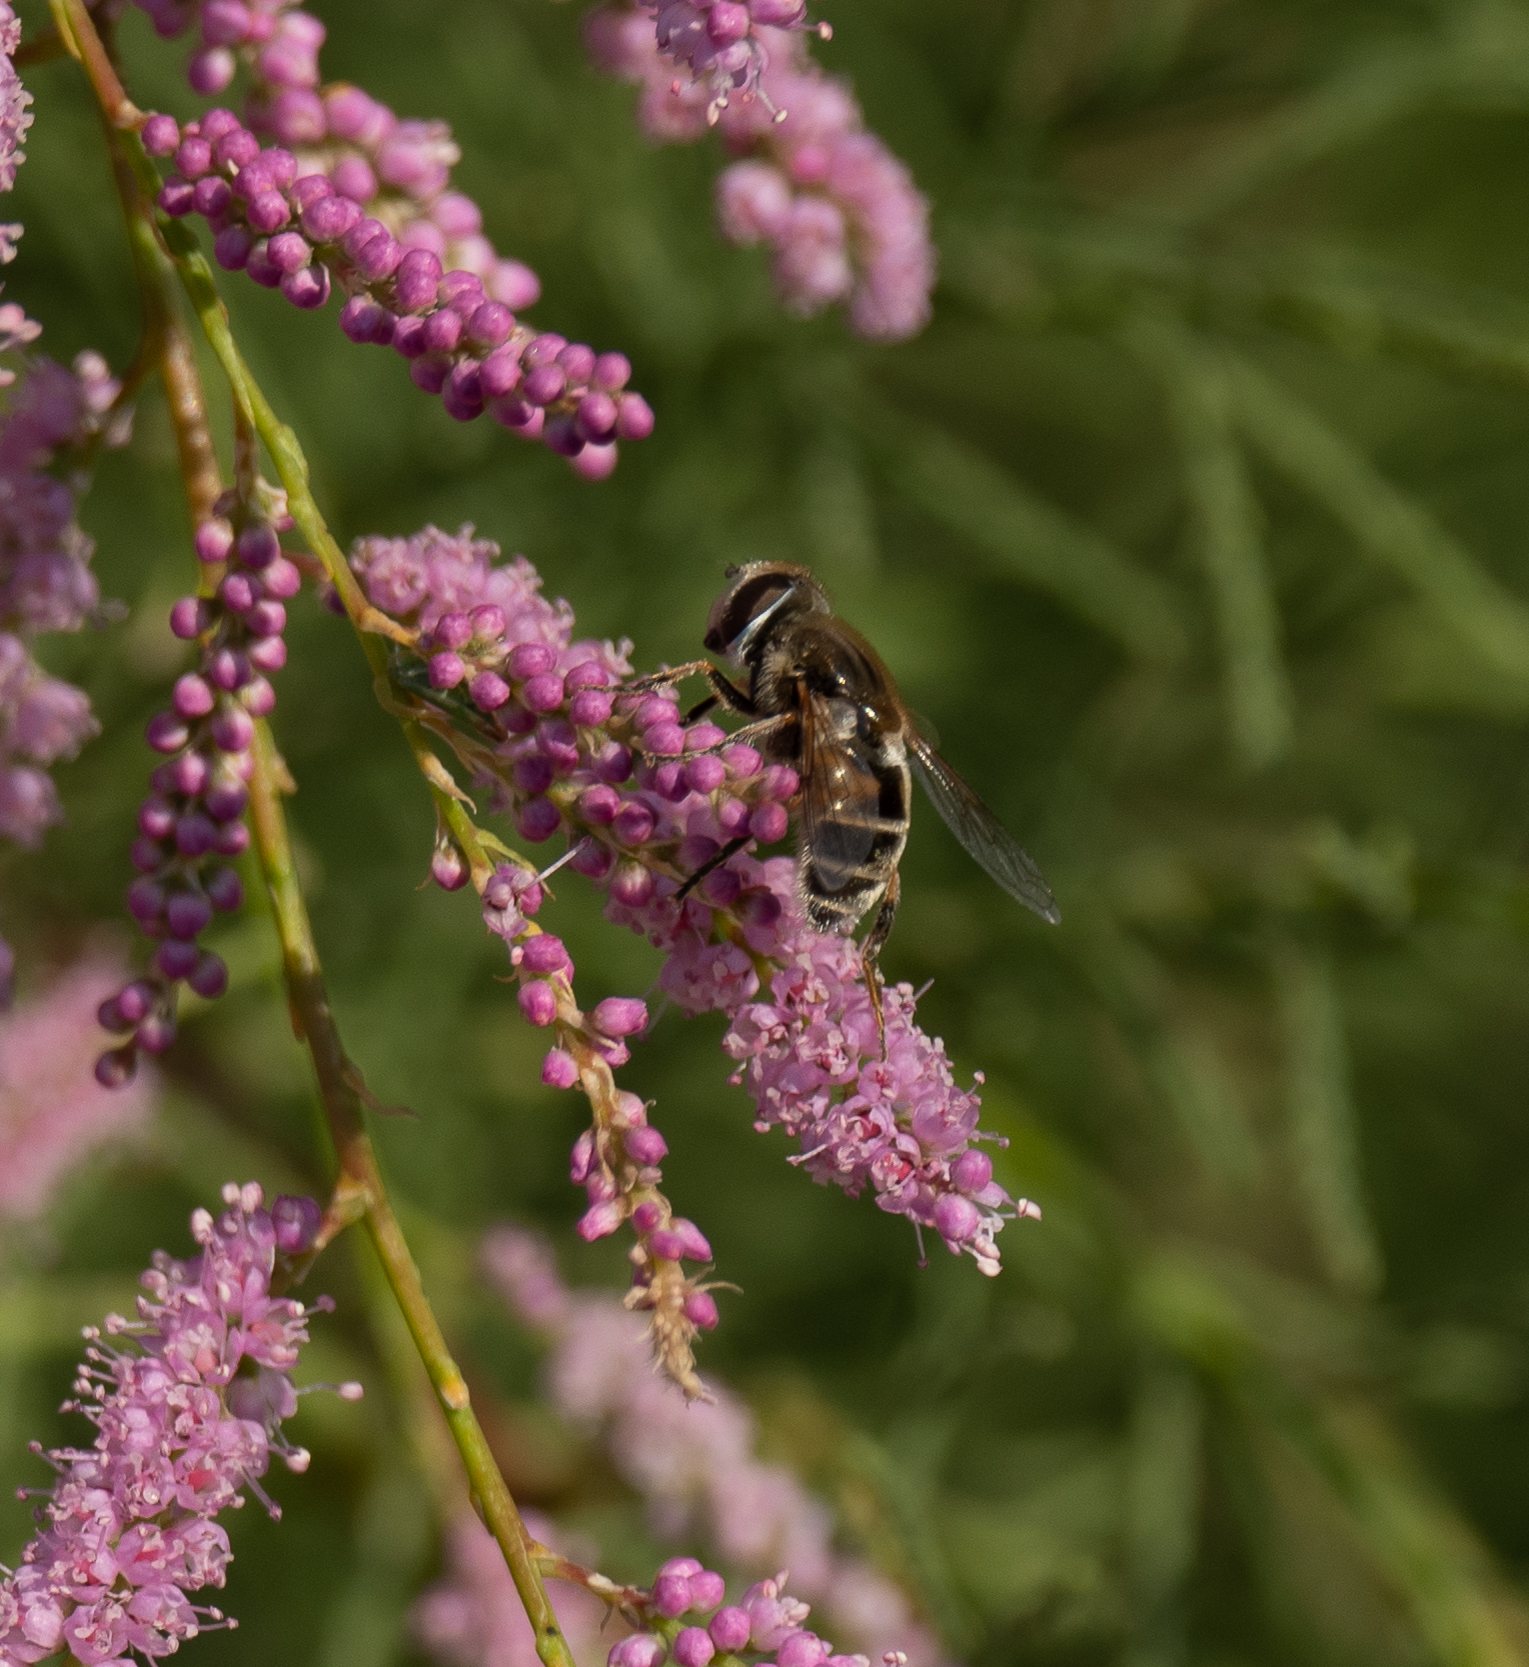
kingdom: Animalia
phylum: Arthropoda
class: Insecta
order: Diptera
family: Syrphidae
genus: Eristalis
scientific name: Eristalis arbustorum
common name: Hover fly
